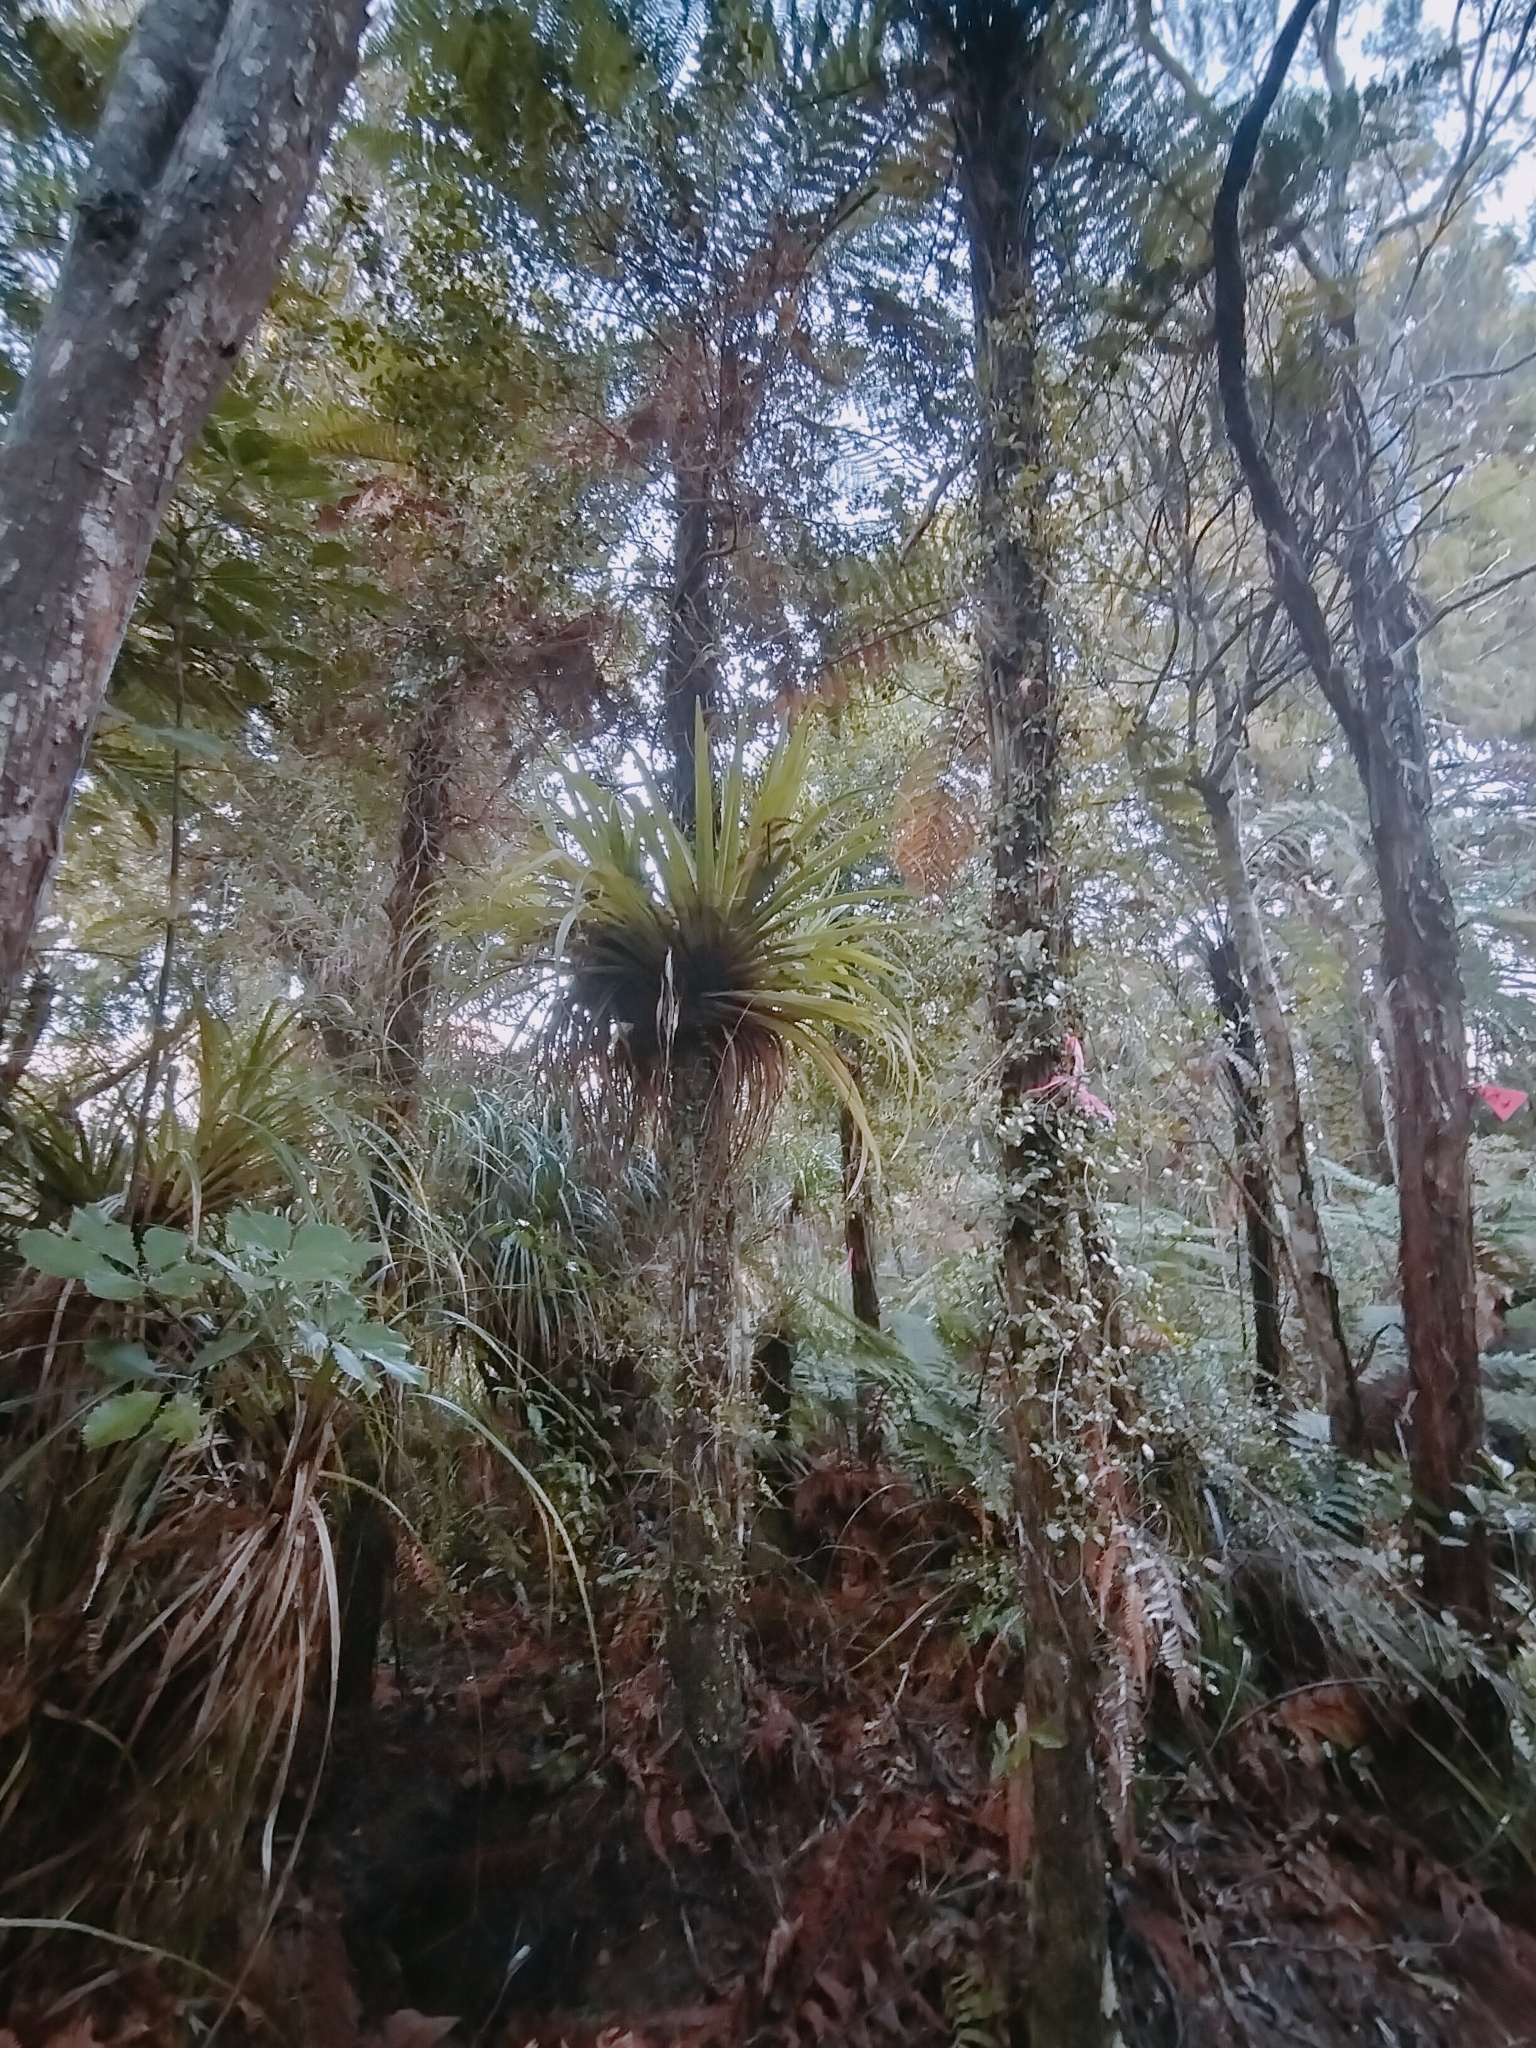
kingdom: Plantae
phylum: Tracheophyta
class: Liliopsida
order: Asparagales
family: Asteliaceae
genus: Astelia
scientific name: Astelia hastata
